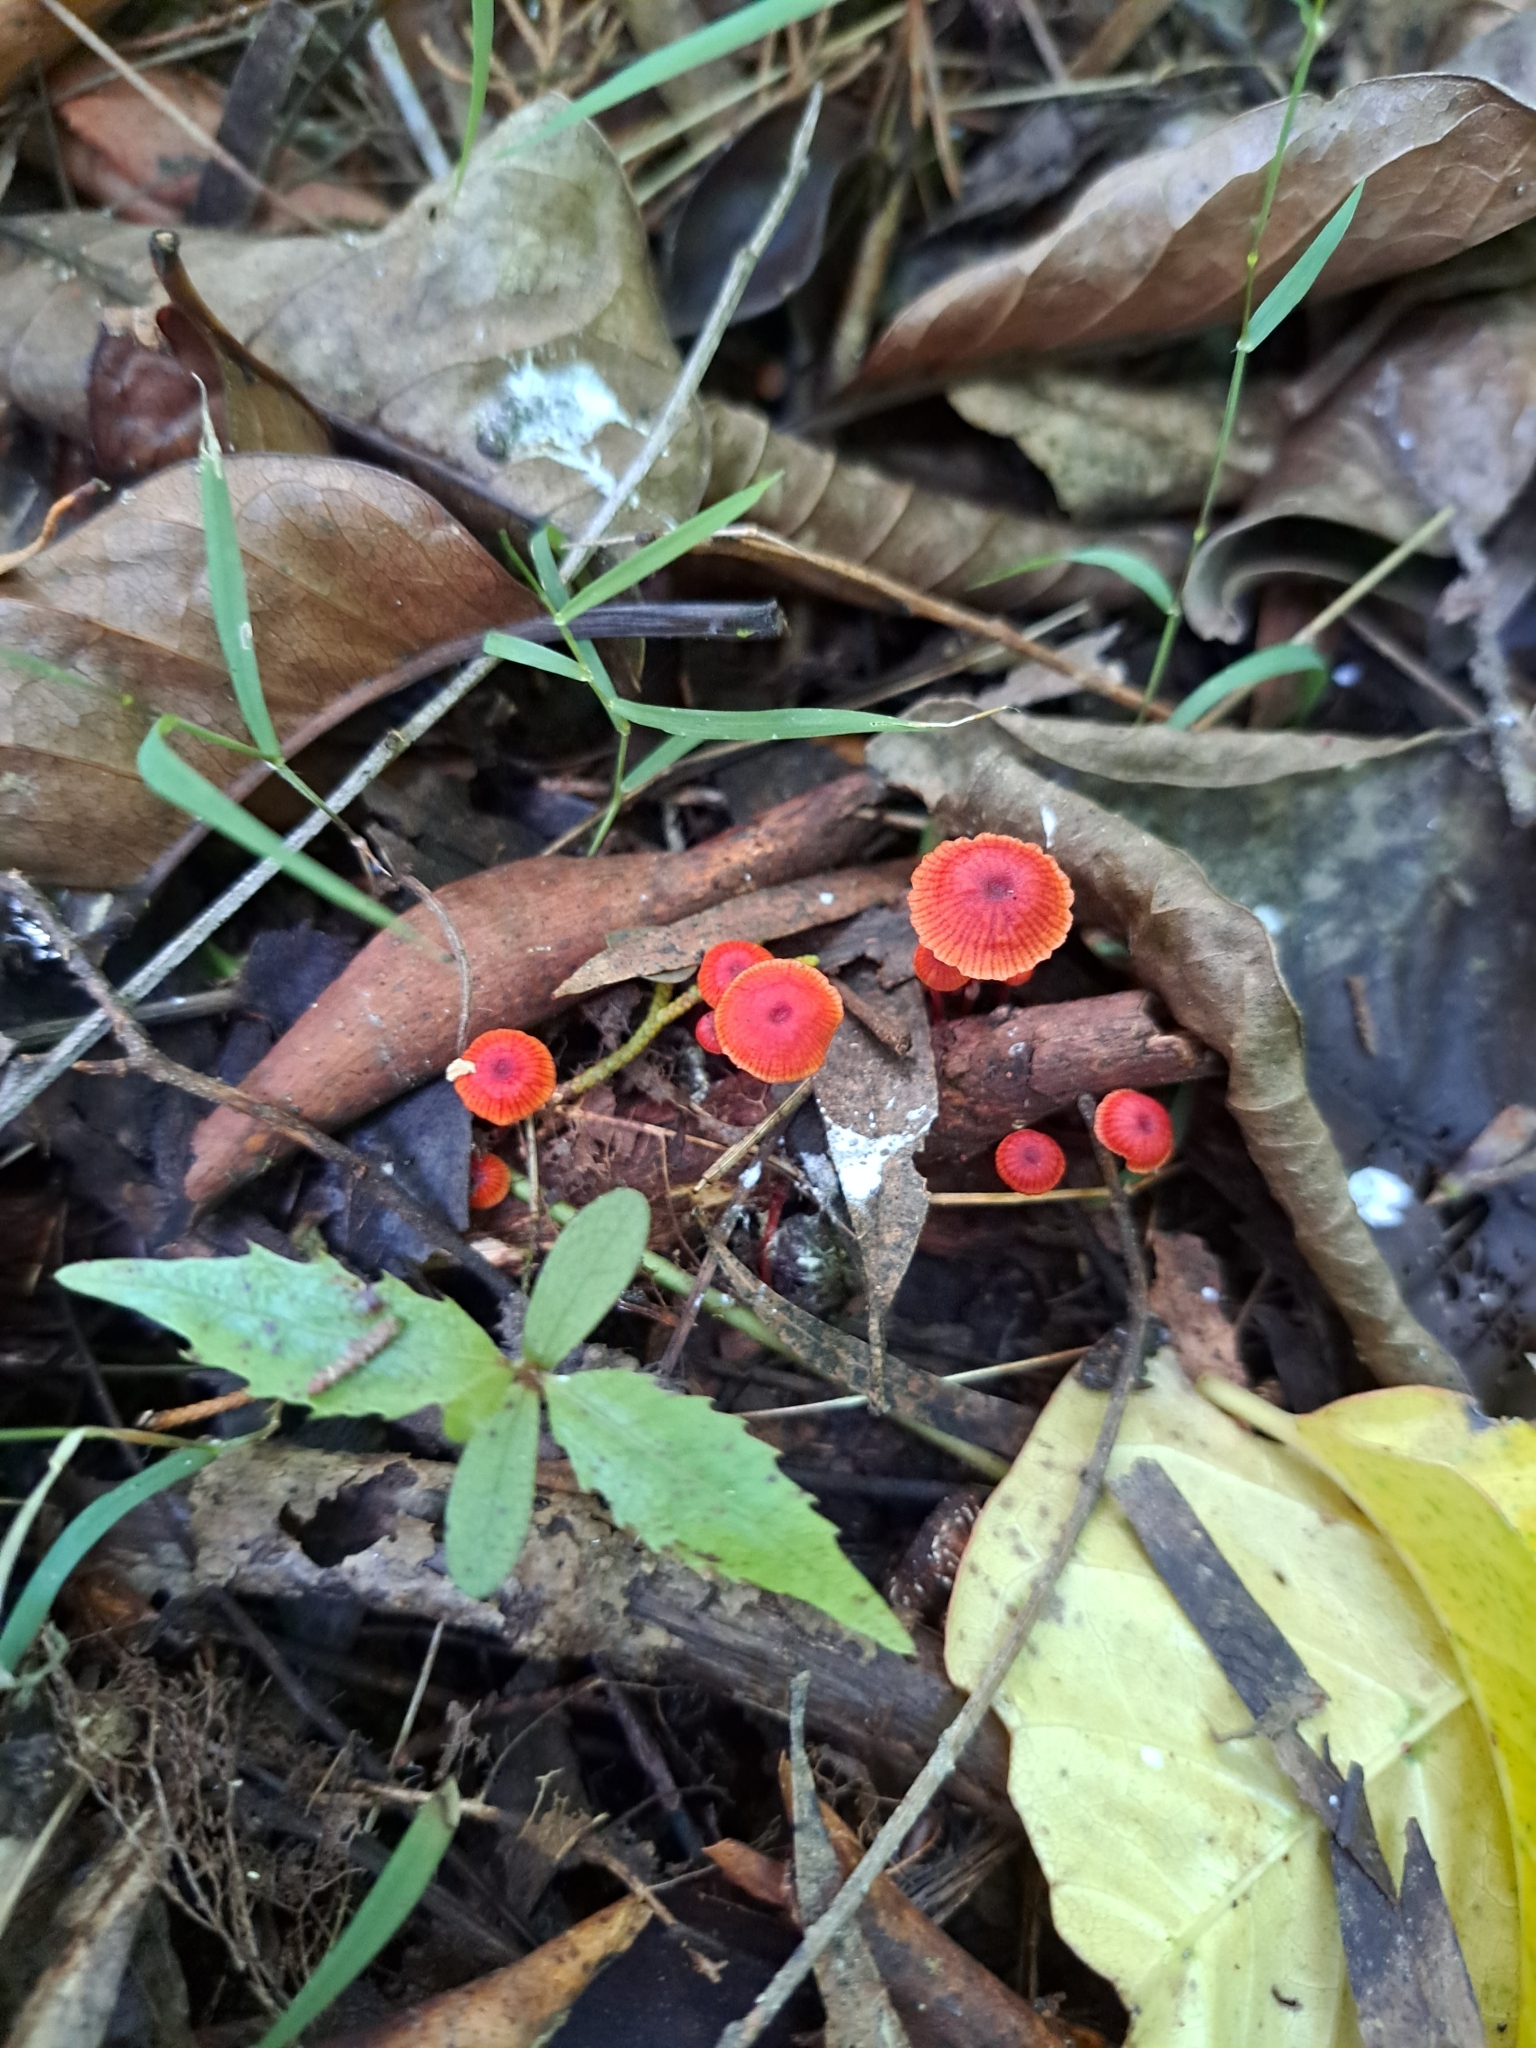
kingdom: Fungi
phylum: Basidiomycota
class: Agaricomycetes
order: Agaricales
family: Mycenaceae
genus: Cruentomycena
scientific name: Cruentomycena viscidocruenta
